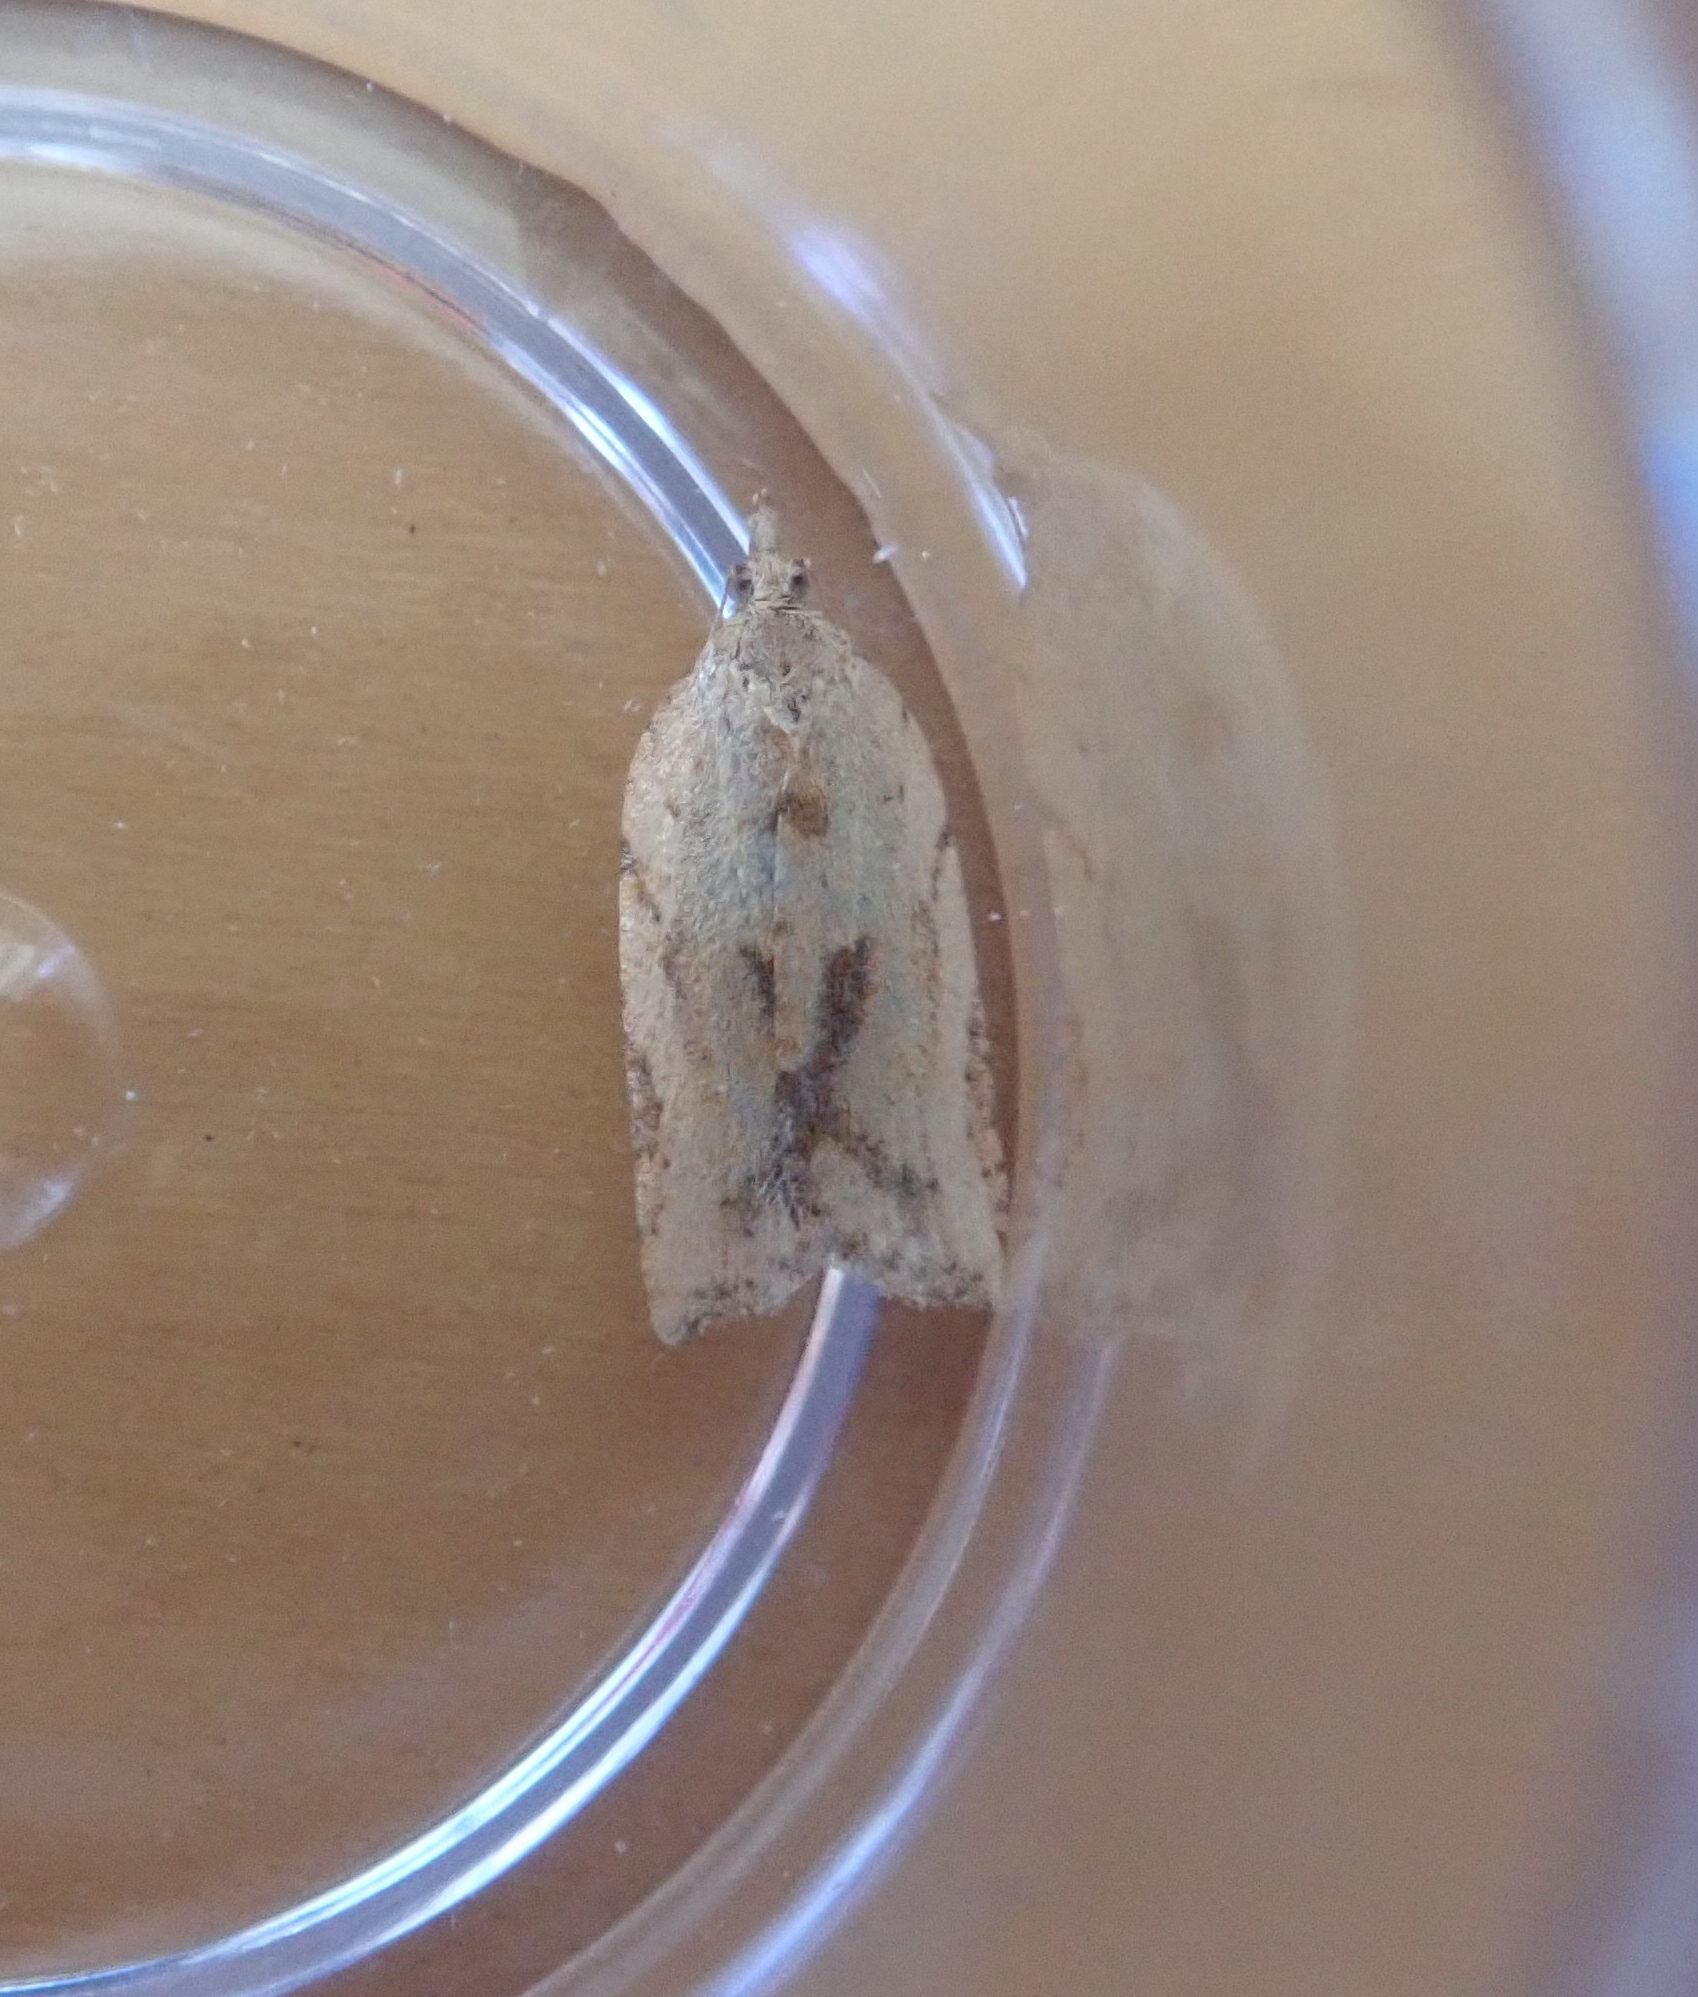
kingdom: Animalia
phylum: Arthropoda
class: Insecta
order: Lepidoptera
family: Tortricidae
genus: Epiphyas
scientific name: Epiphyas postvittana
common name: Light brown apple moth
